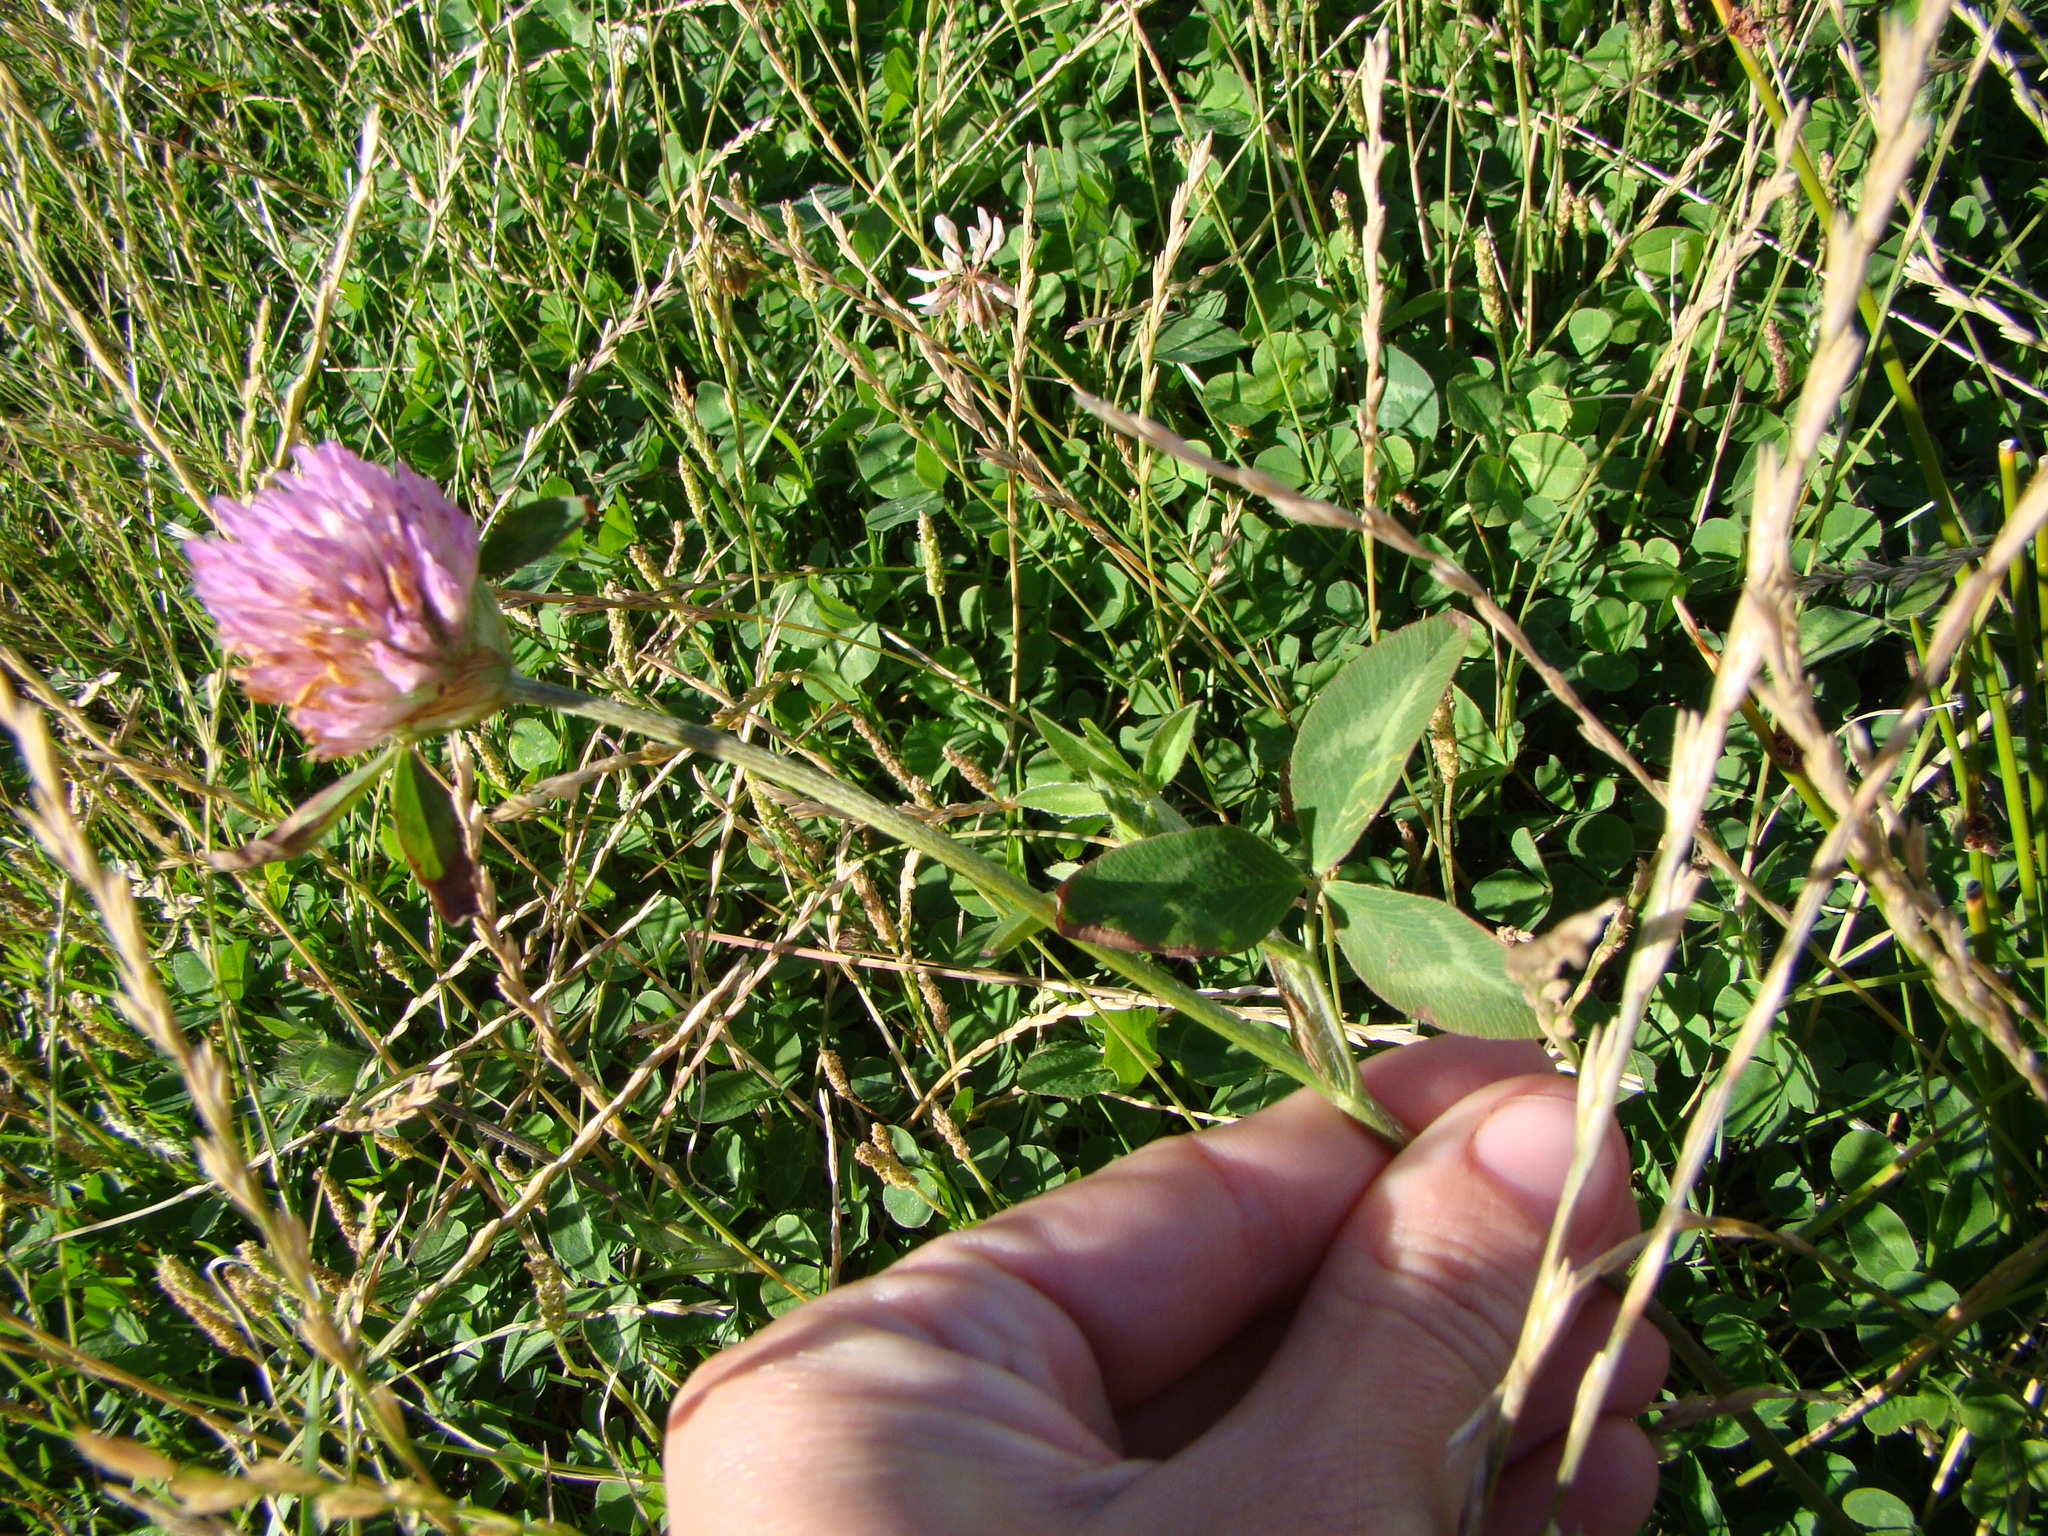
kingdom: Plantae
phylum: Tracheophyta
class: Magnoliopsida
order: Fabales
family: Fabaceae
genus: Trifolium
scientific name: Trifolium pratense
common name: Red clover
